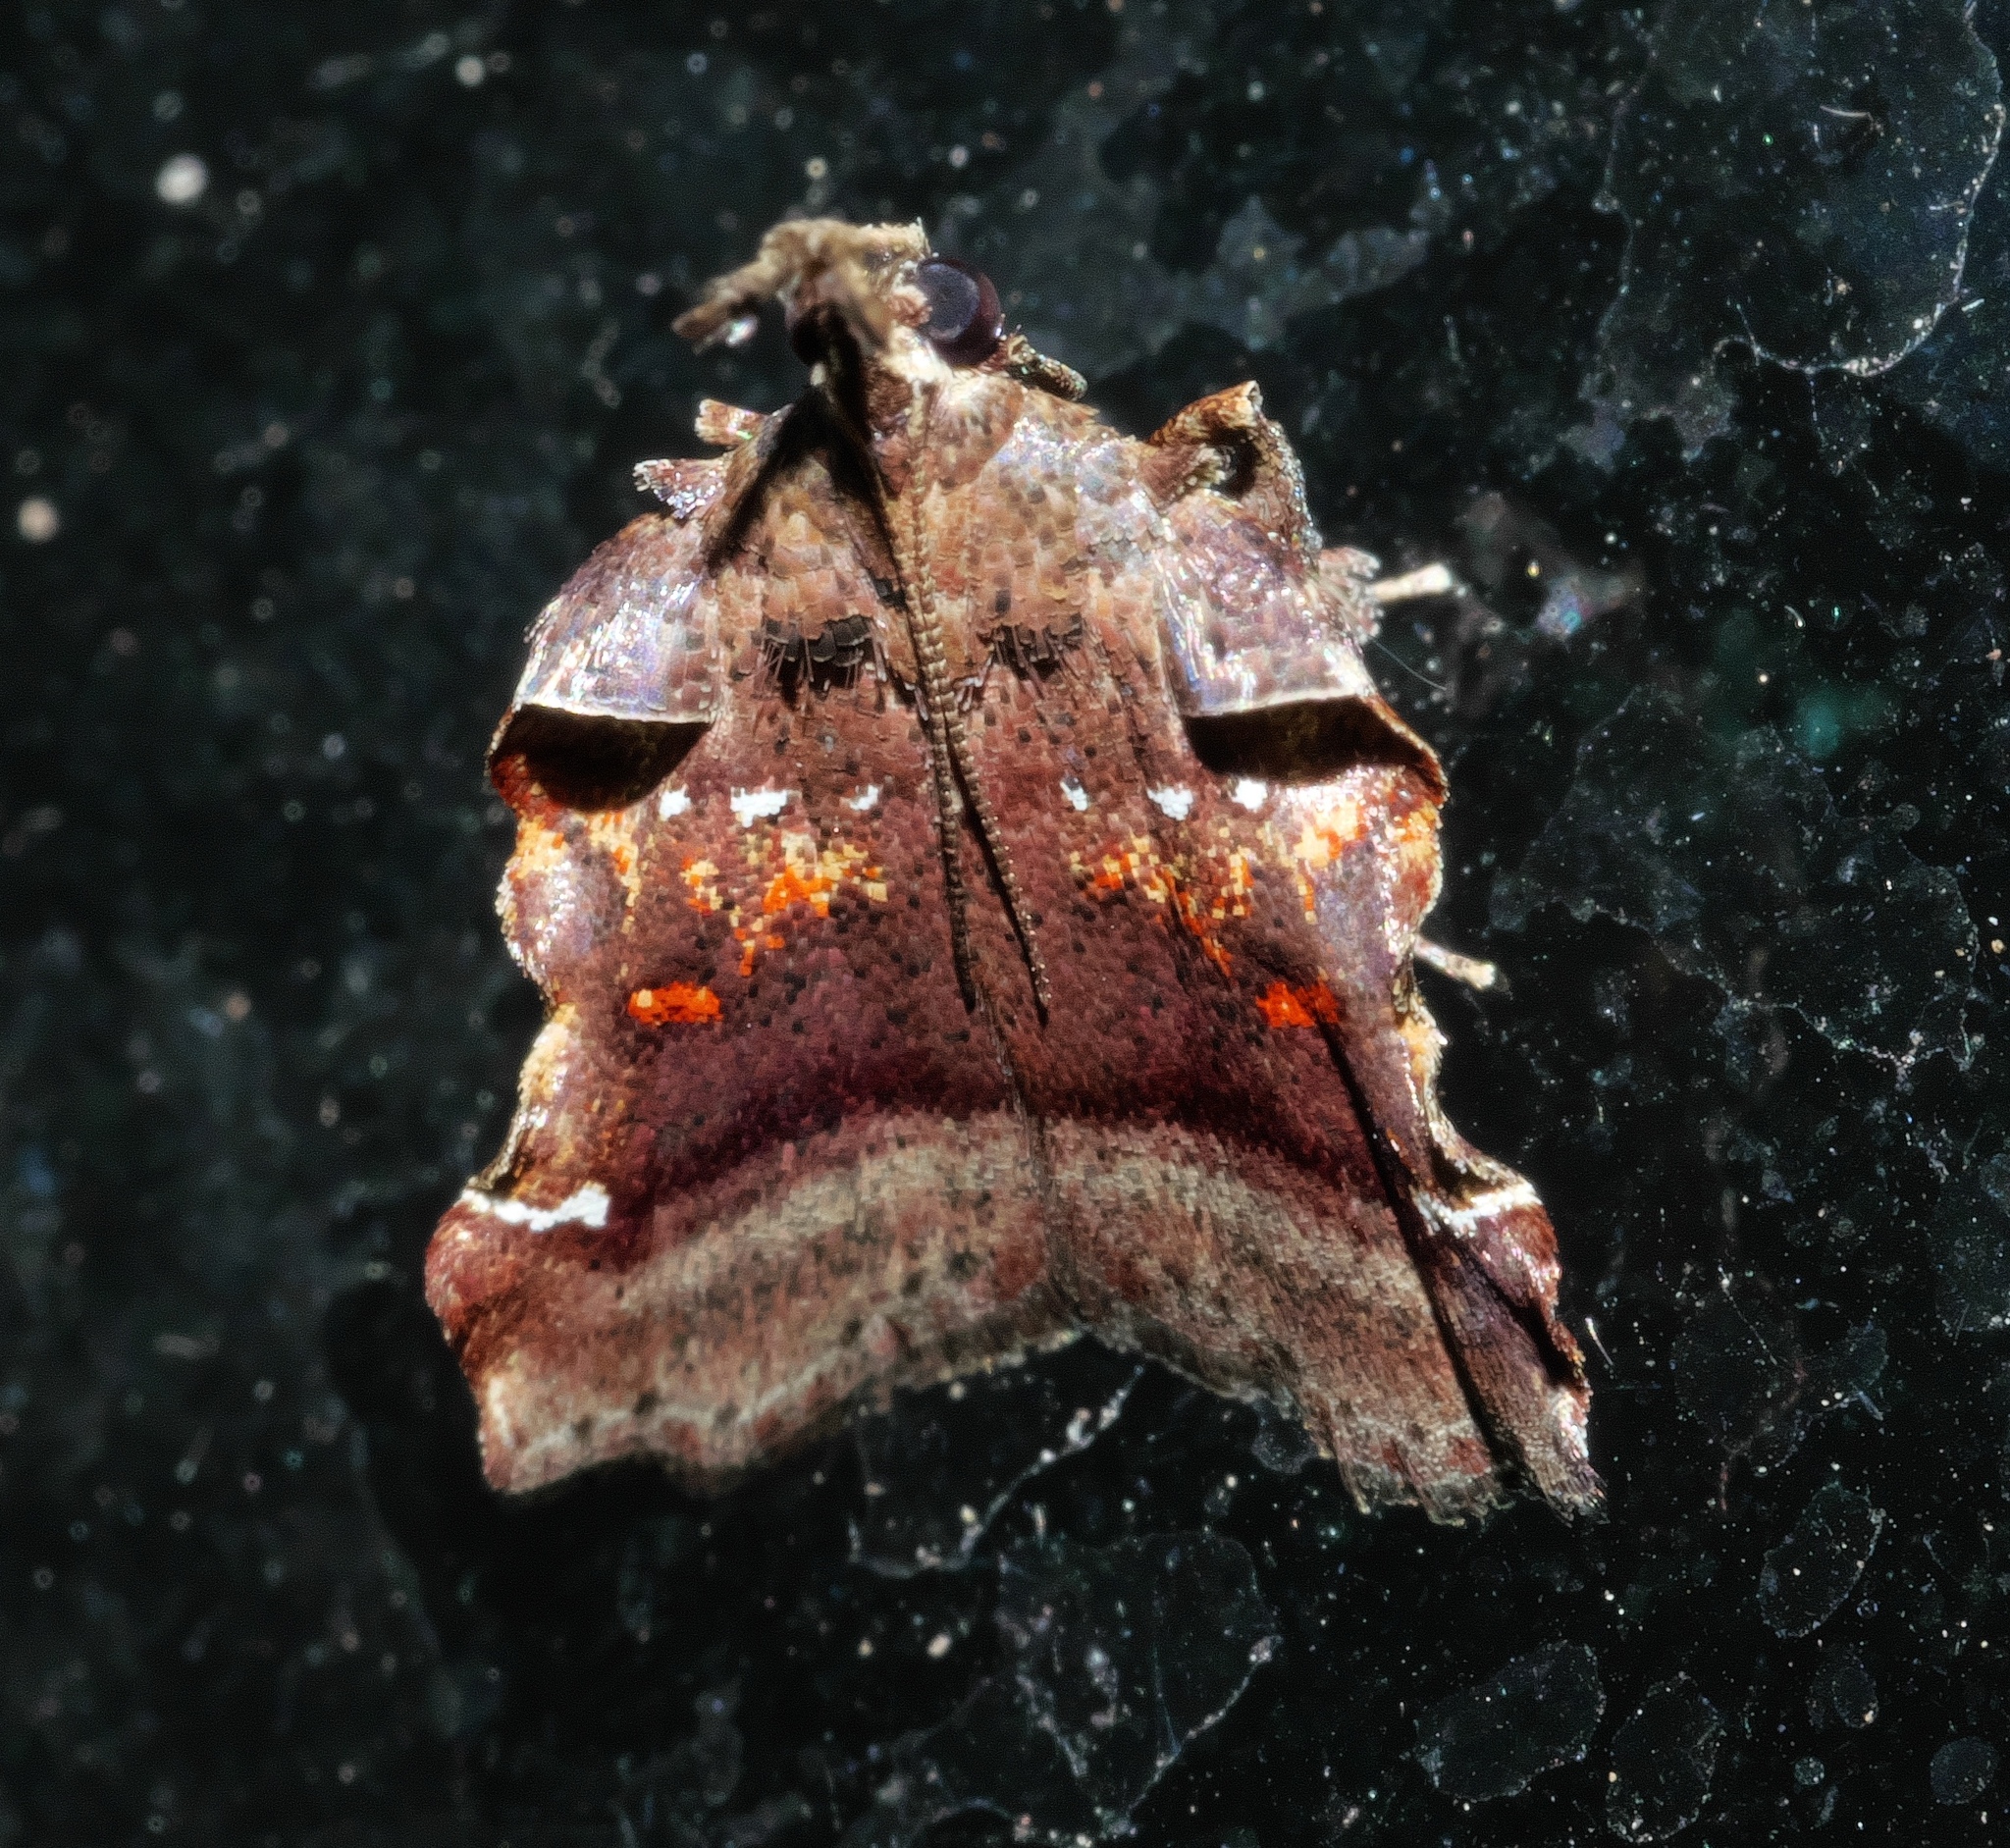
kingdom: Animalia
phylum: Arthropoda
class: Insecta
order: Lepidoptera
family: Pyralidae
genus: Clydonopteron
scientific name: Clydonopteron sacculana
